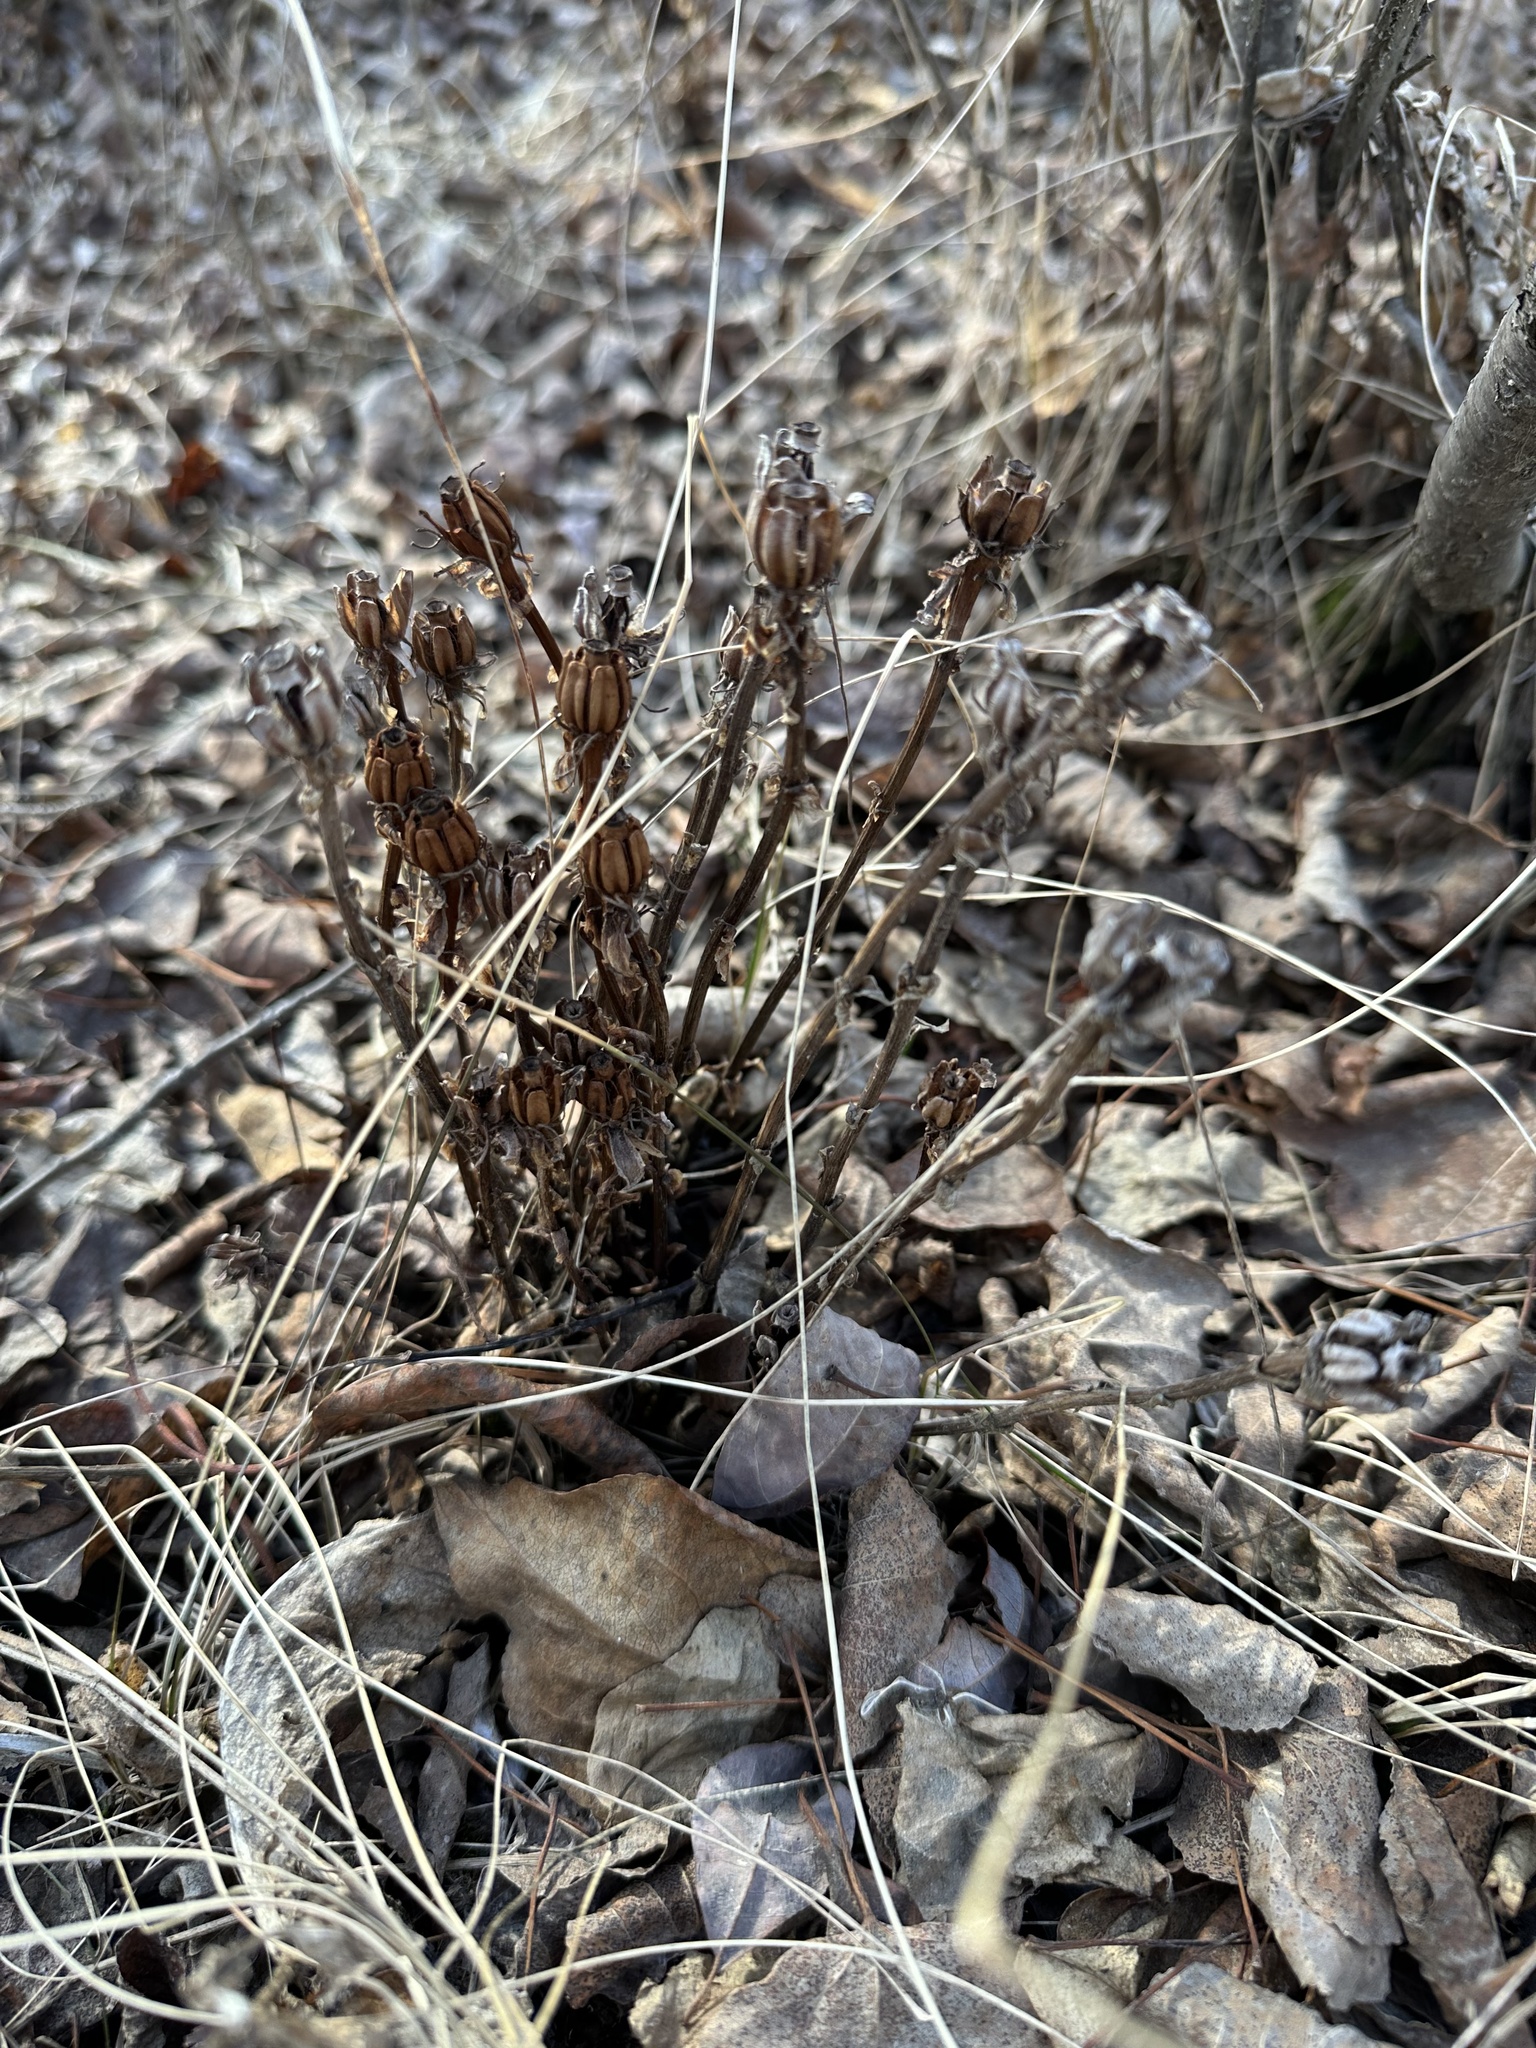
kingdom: Plantae
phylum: Tracheophyta
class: Magnoliopsida
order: Ericales
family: Ericaceae
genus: Monotropa
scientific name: Monotropa uniflora
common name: Convulsion root
